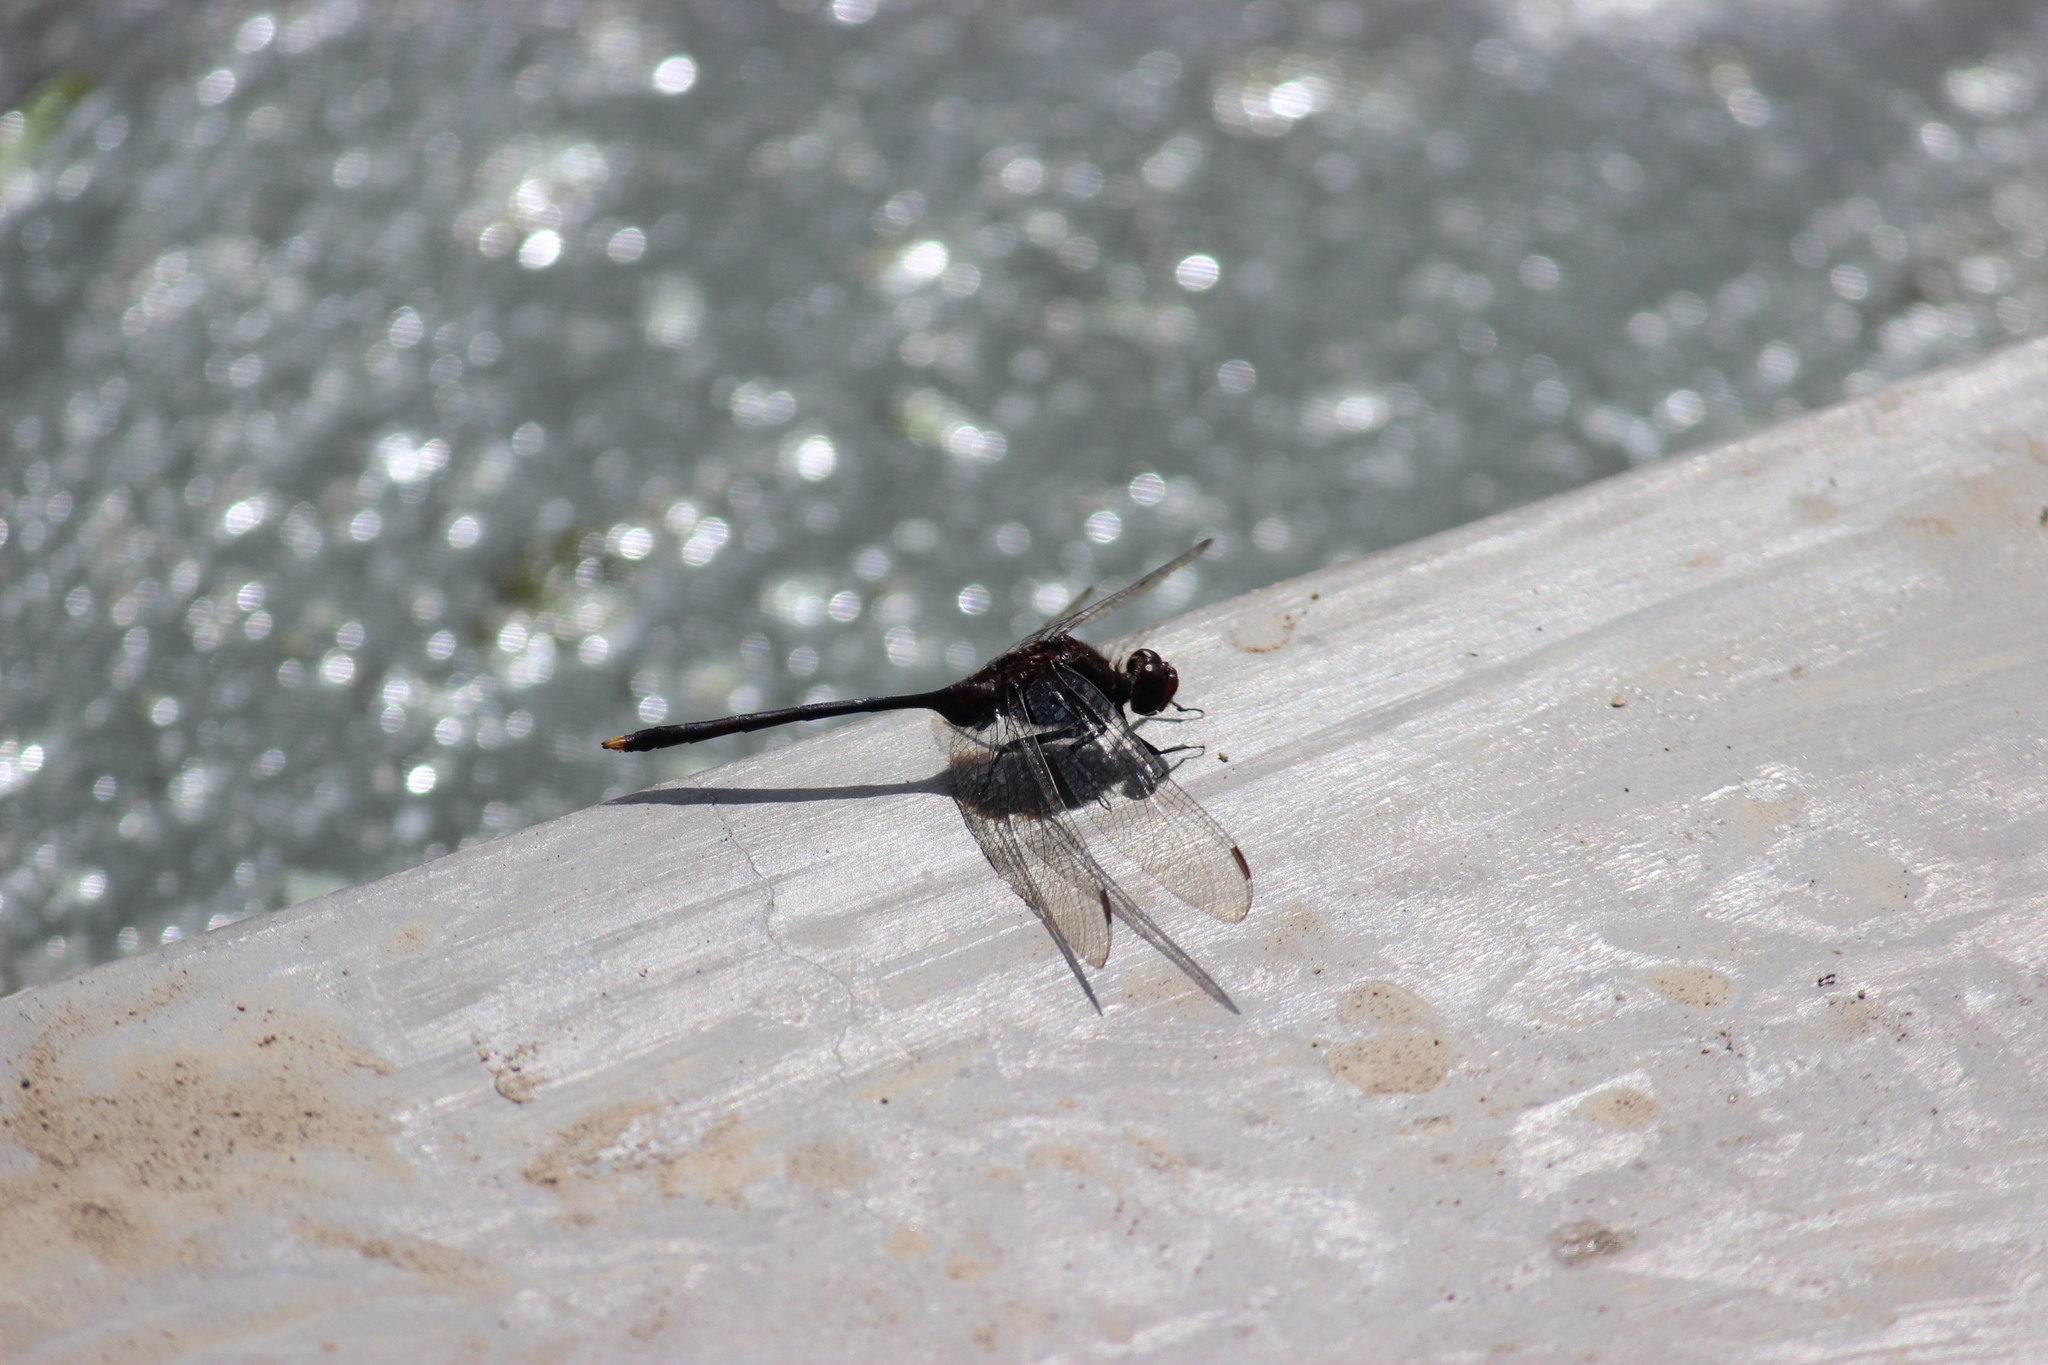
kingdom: Animalia
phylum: Arthropoda
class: Insecta
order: Odonata
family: Libellulidae
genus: Erythemis
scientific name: Erythemis plebeja
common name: Pin-tailed pondhawk
